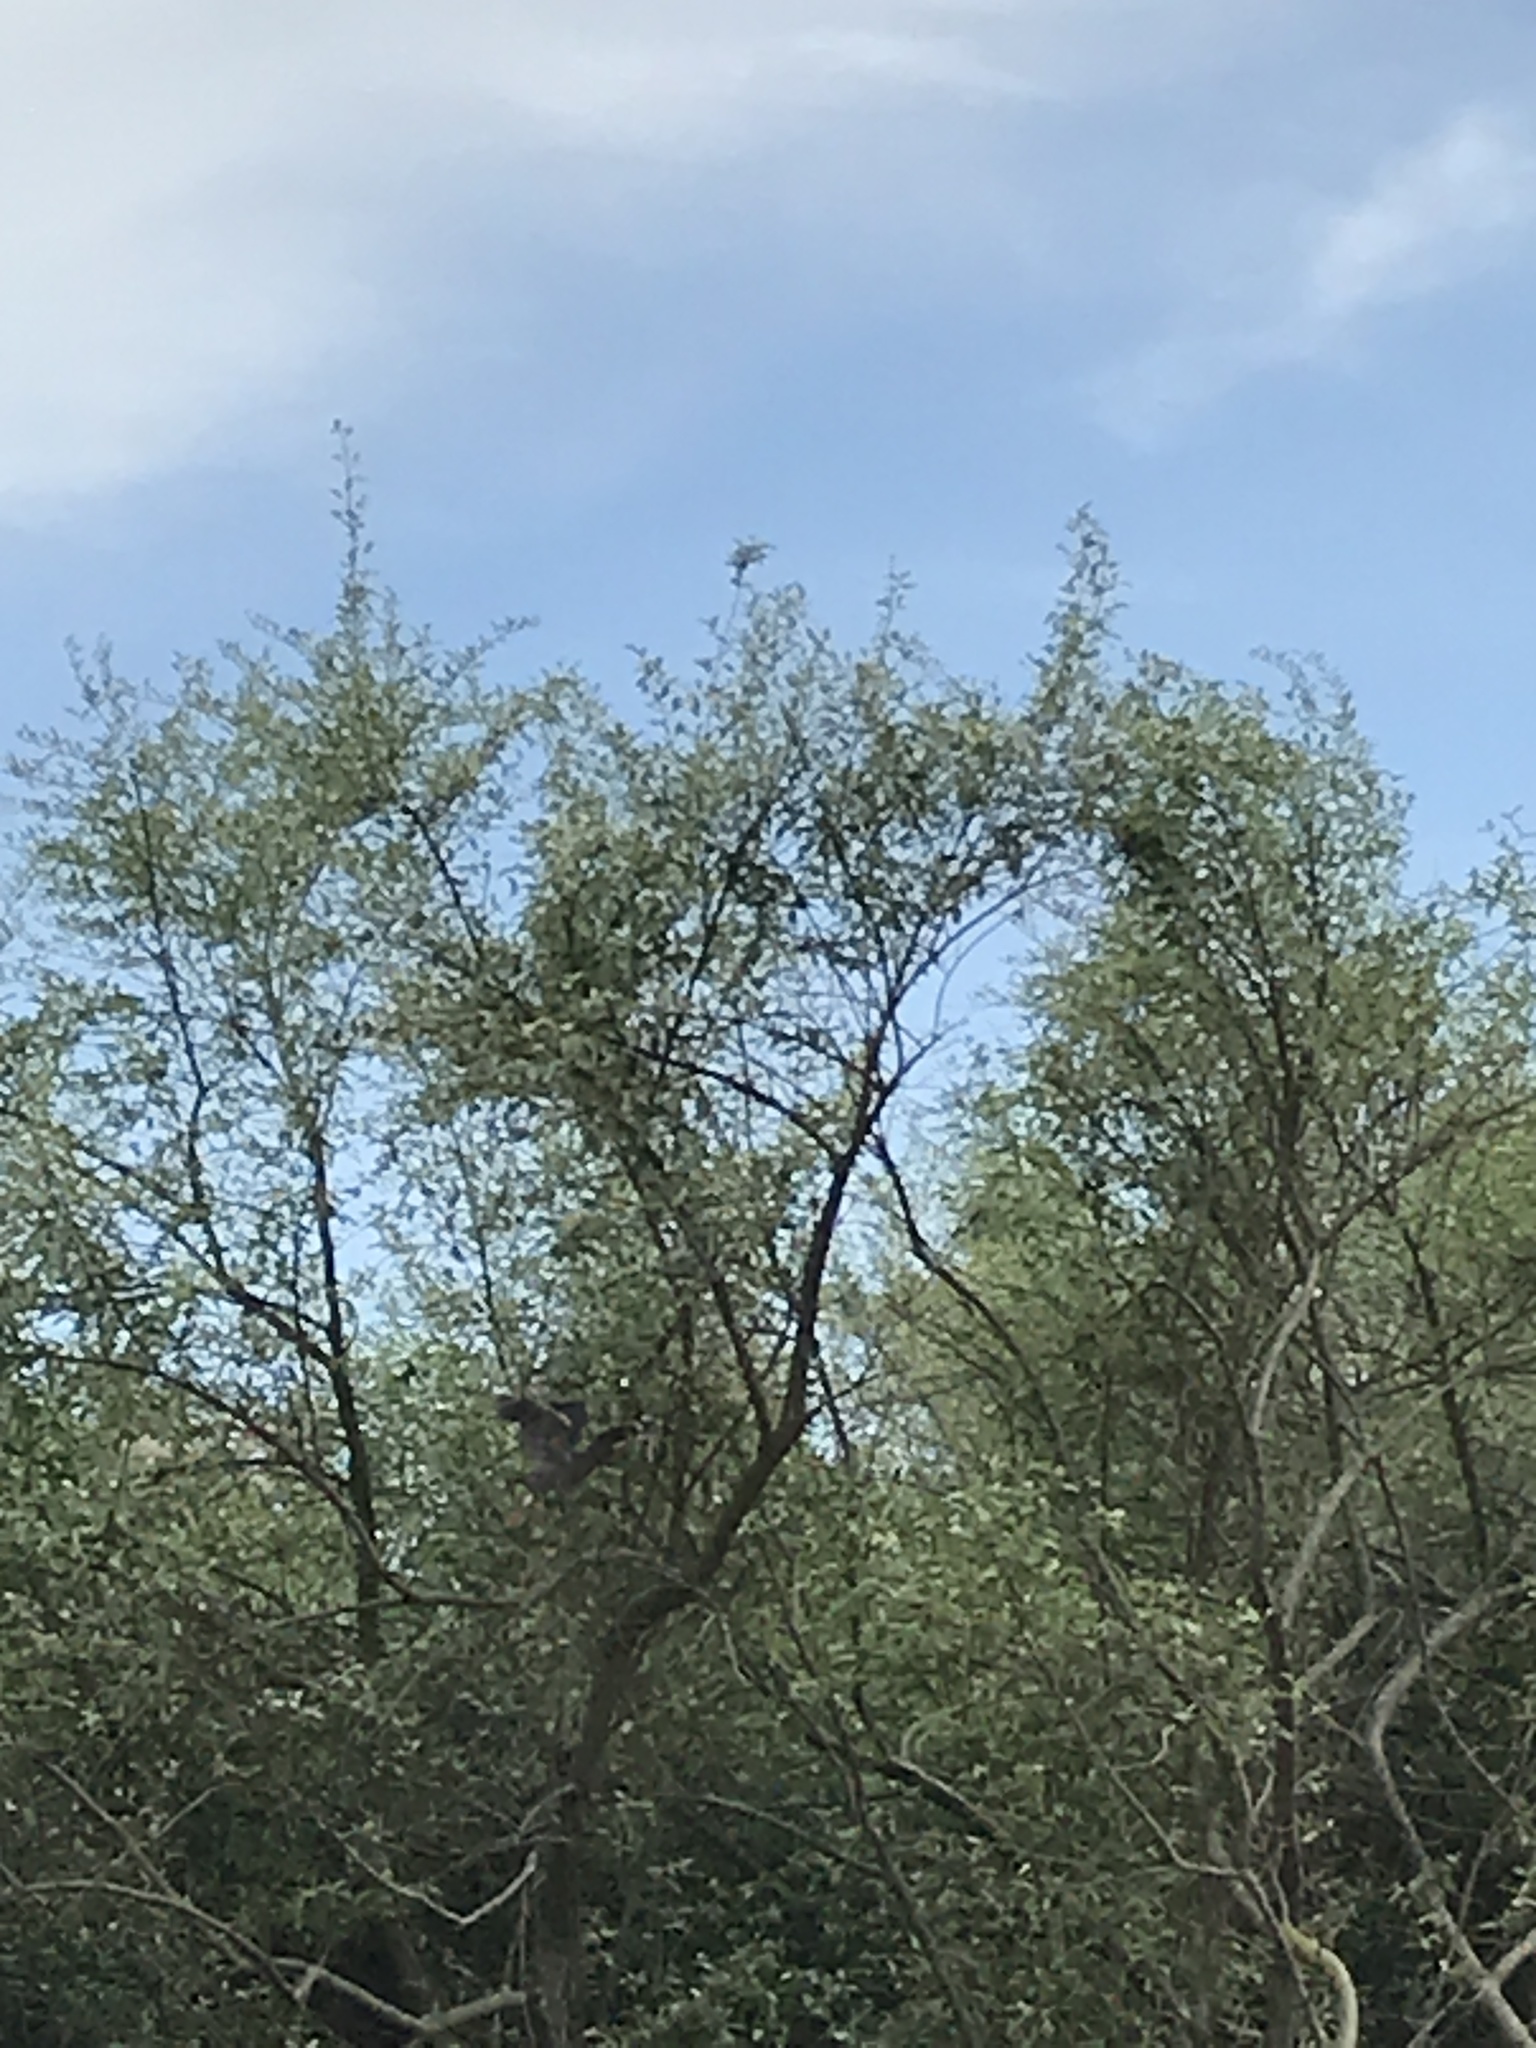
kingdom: Animalia
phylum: Chordata
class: Aves
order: Pelecaniformes
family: Ardeidae
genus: Butorides
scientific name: Butorides virescens
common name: Green heron
